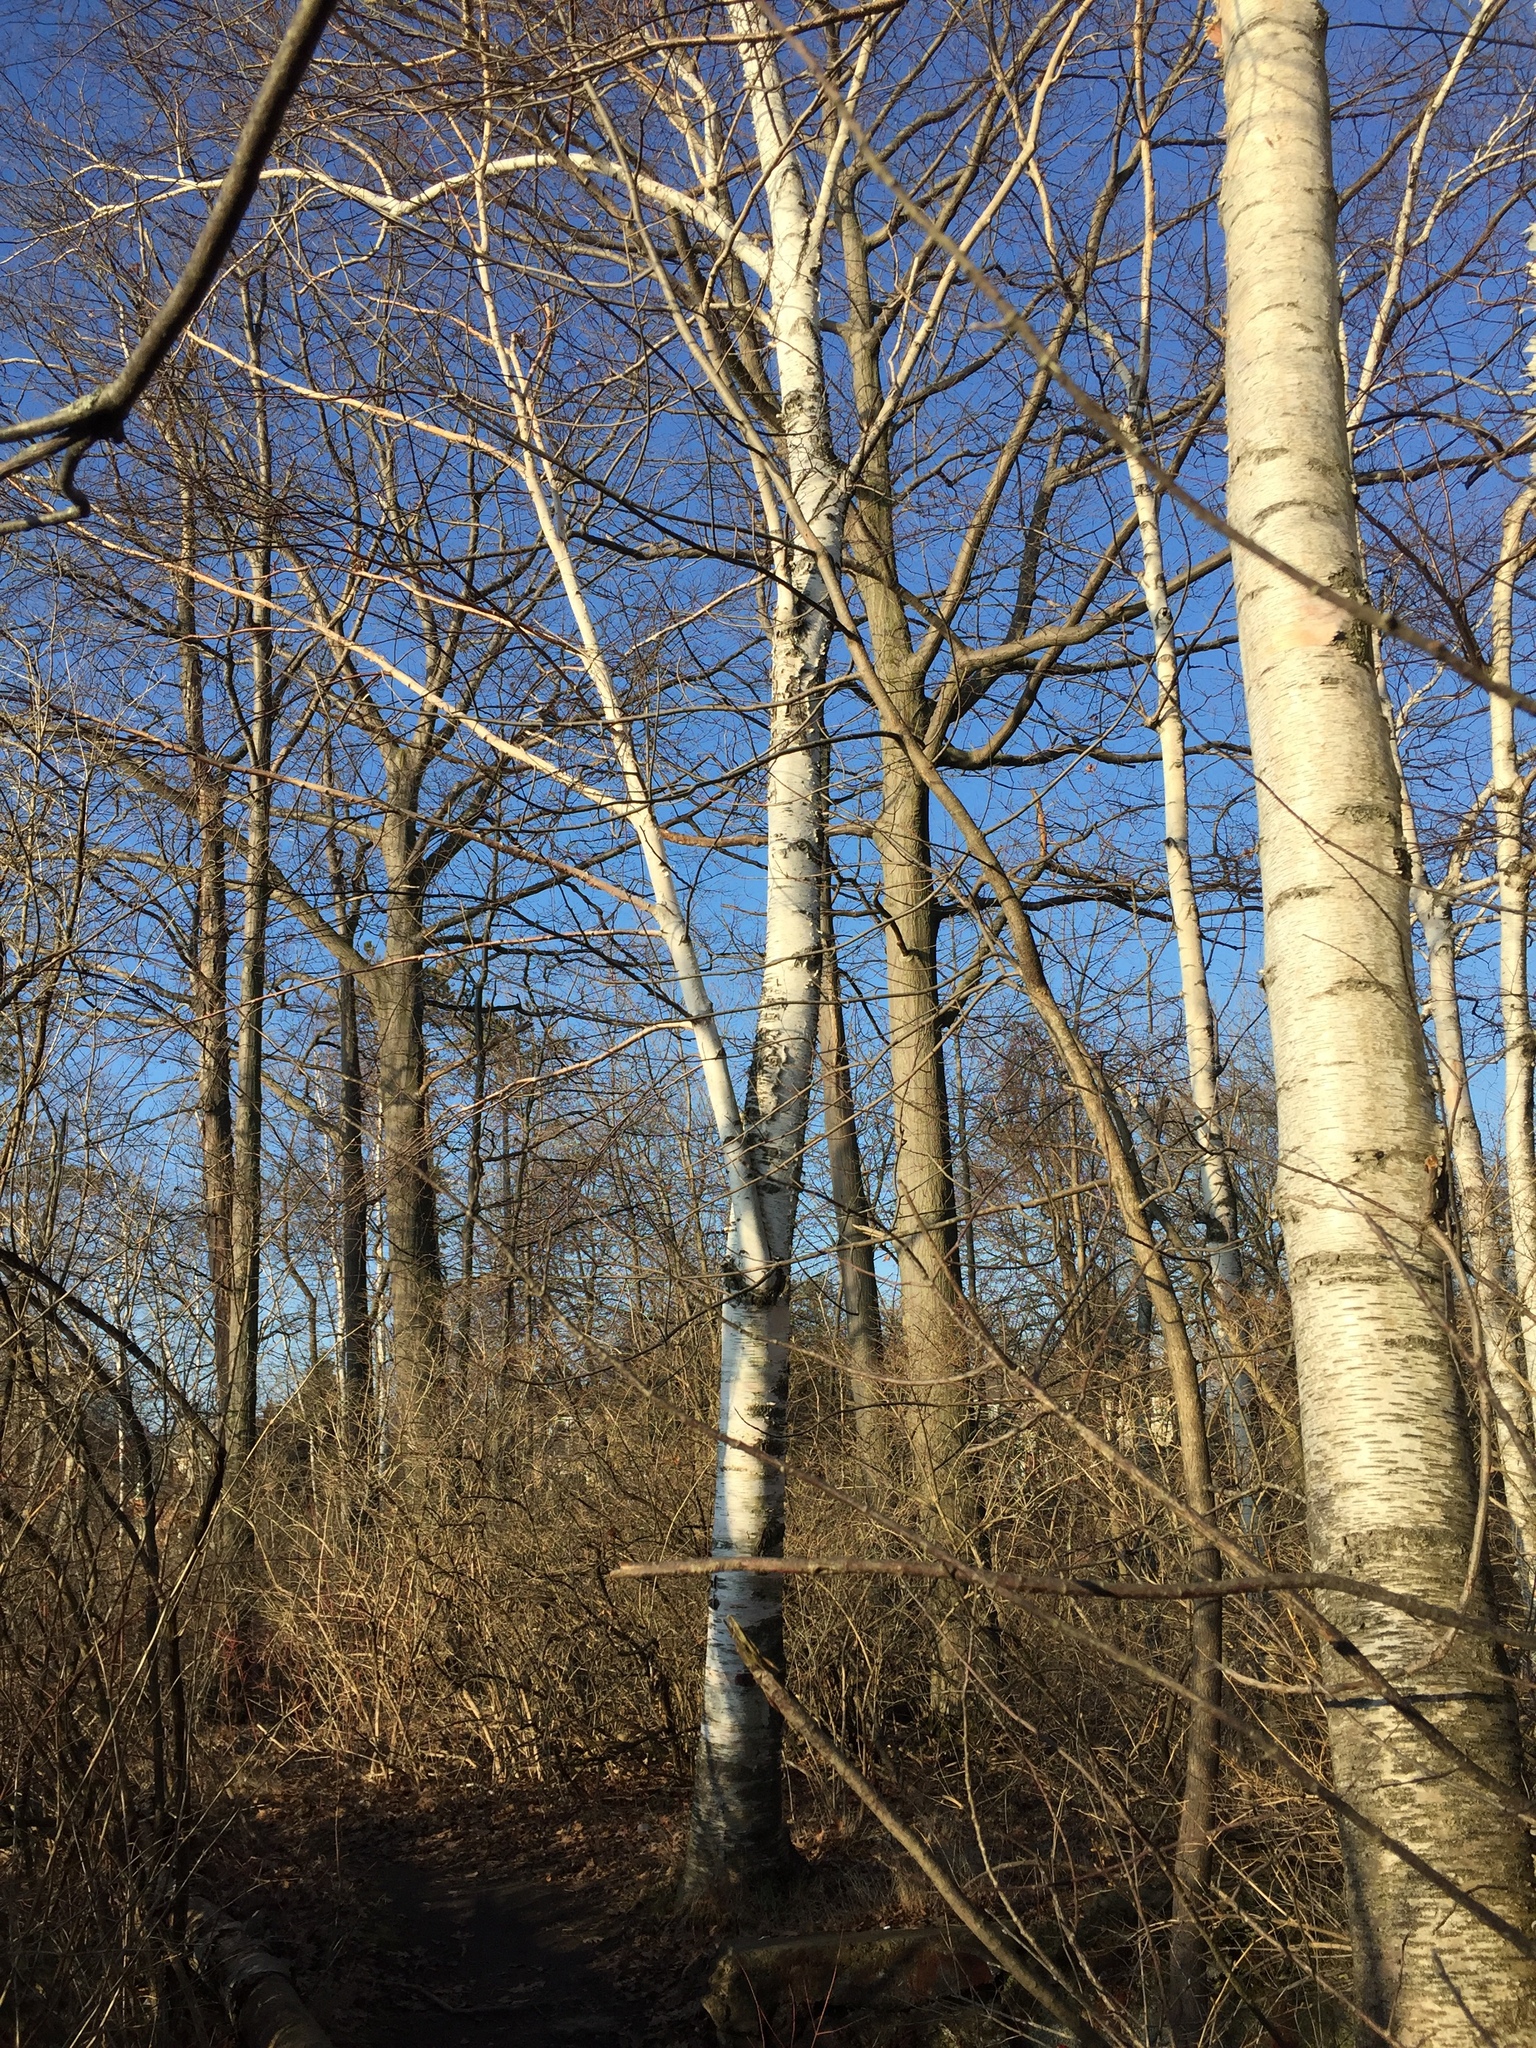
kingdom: Plantae
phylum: Tracheophyta
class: Magnoliopsida
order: Fagales
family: Betulaceae
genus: Betula
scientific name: Betula papyrifera
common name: Paper birch
